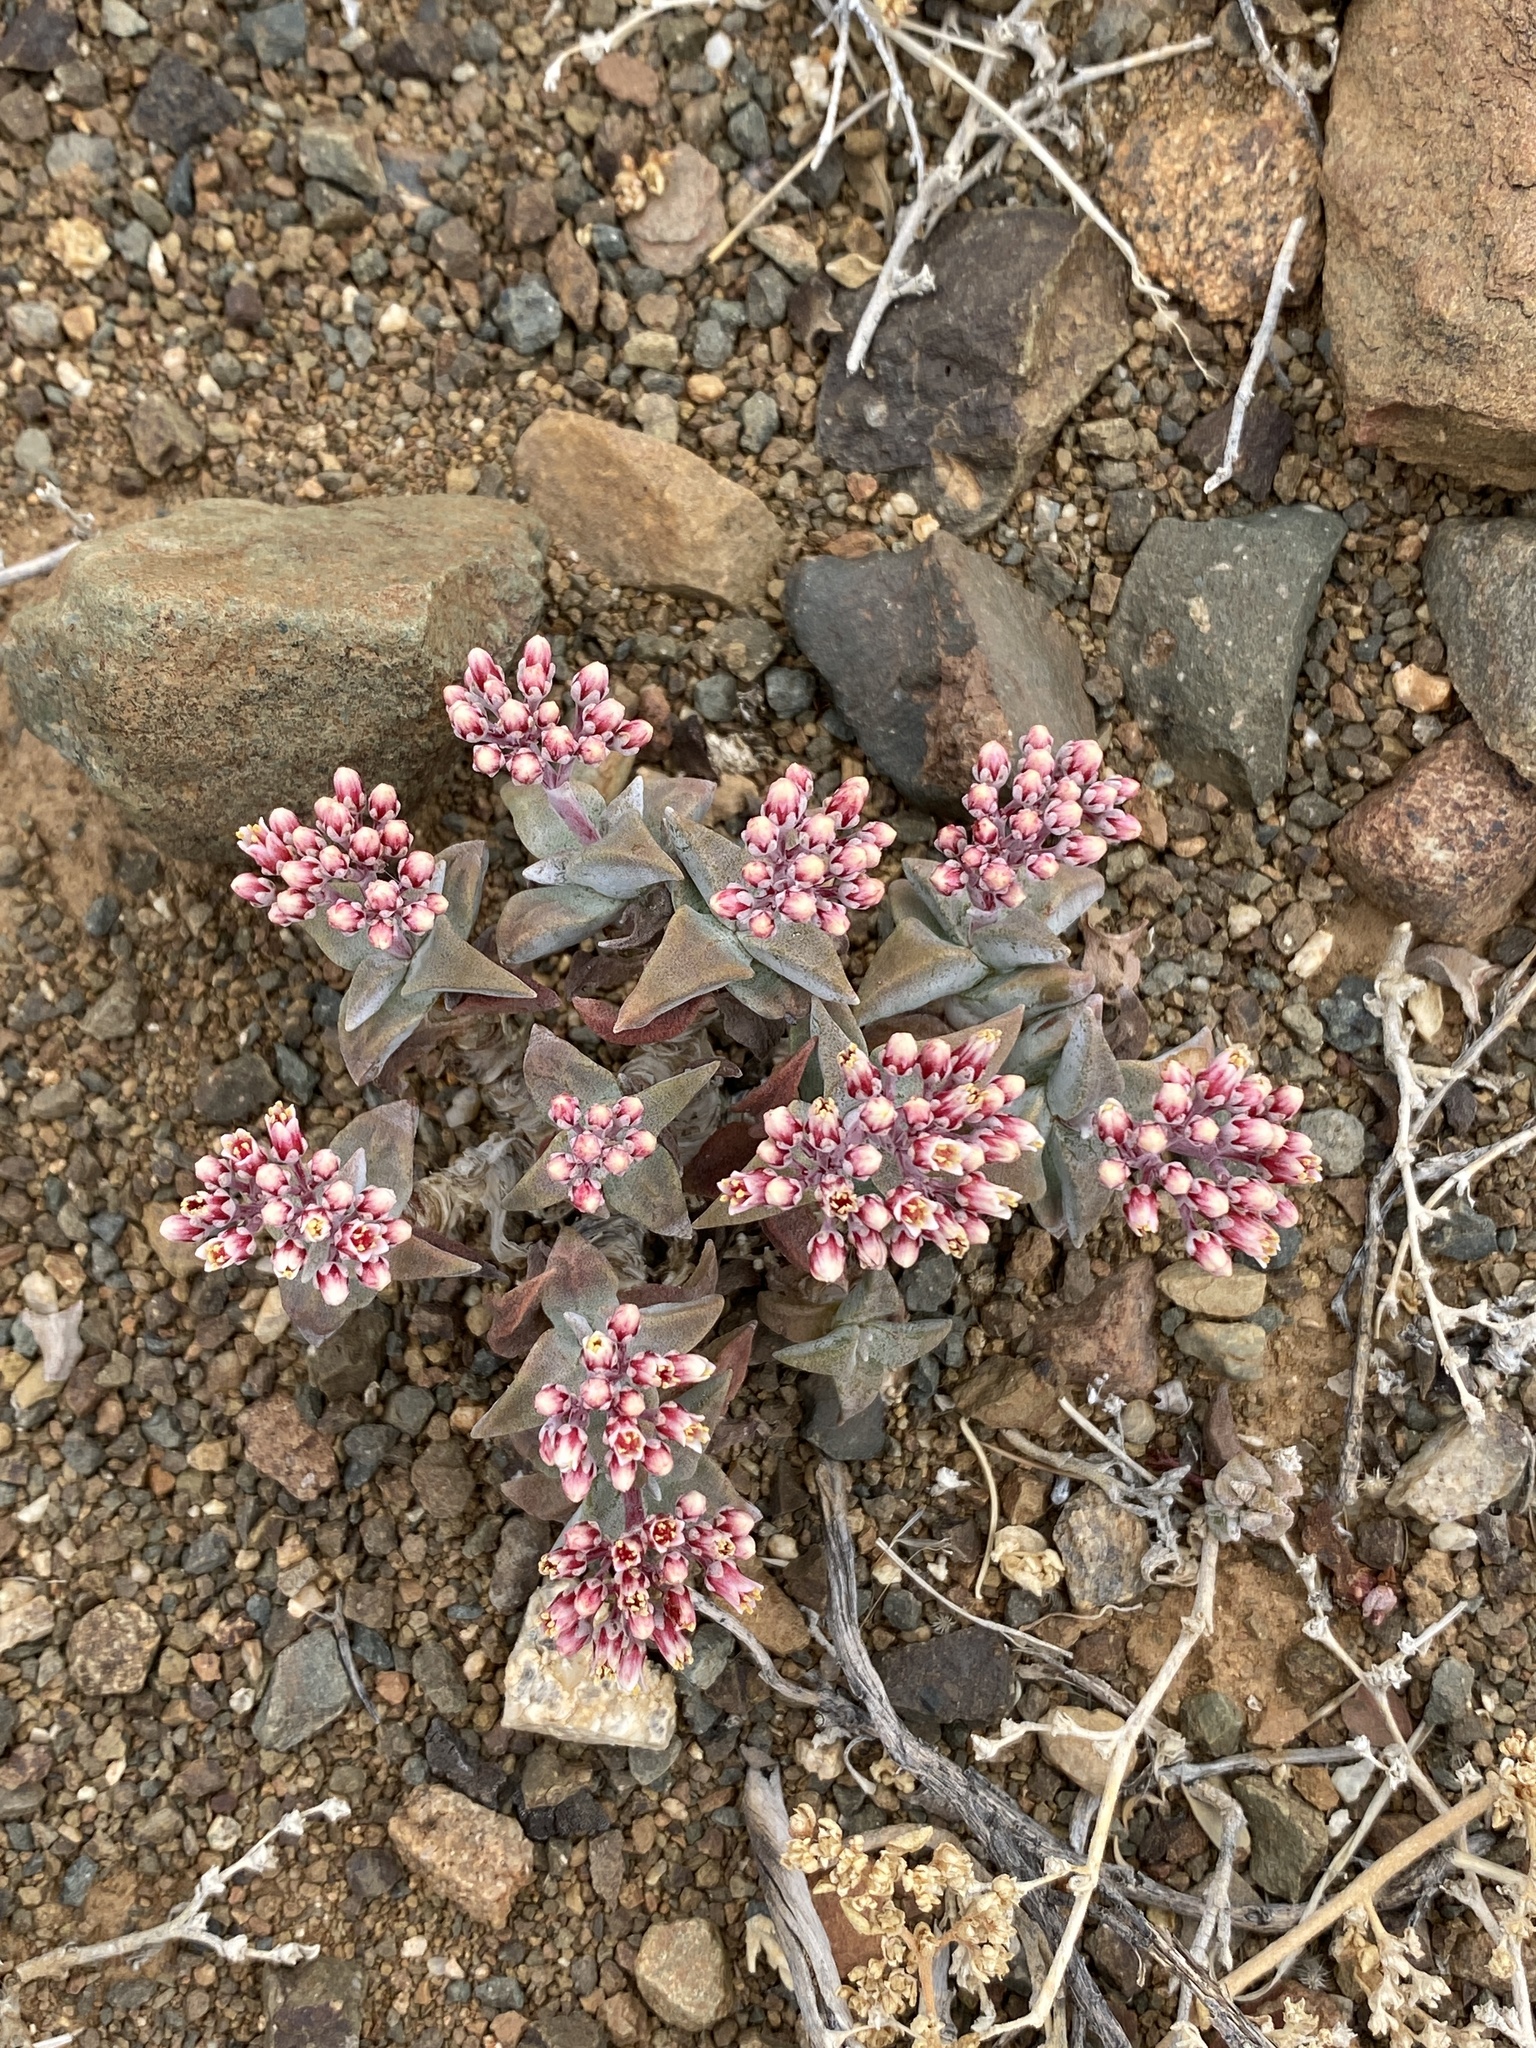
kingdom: Plantae
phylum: Tracheophyta
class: Magnoliopsida
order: Saxifragales
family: Crassulaceae
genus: Crassula
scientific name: Crassula deltoidea
